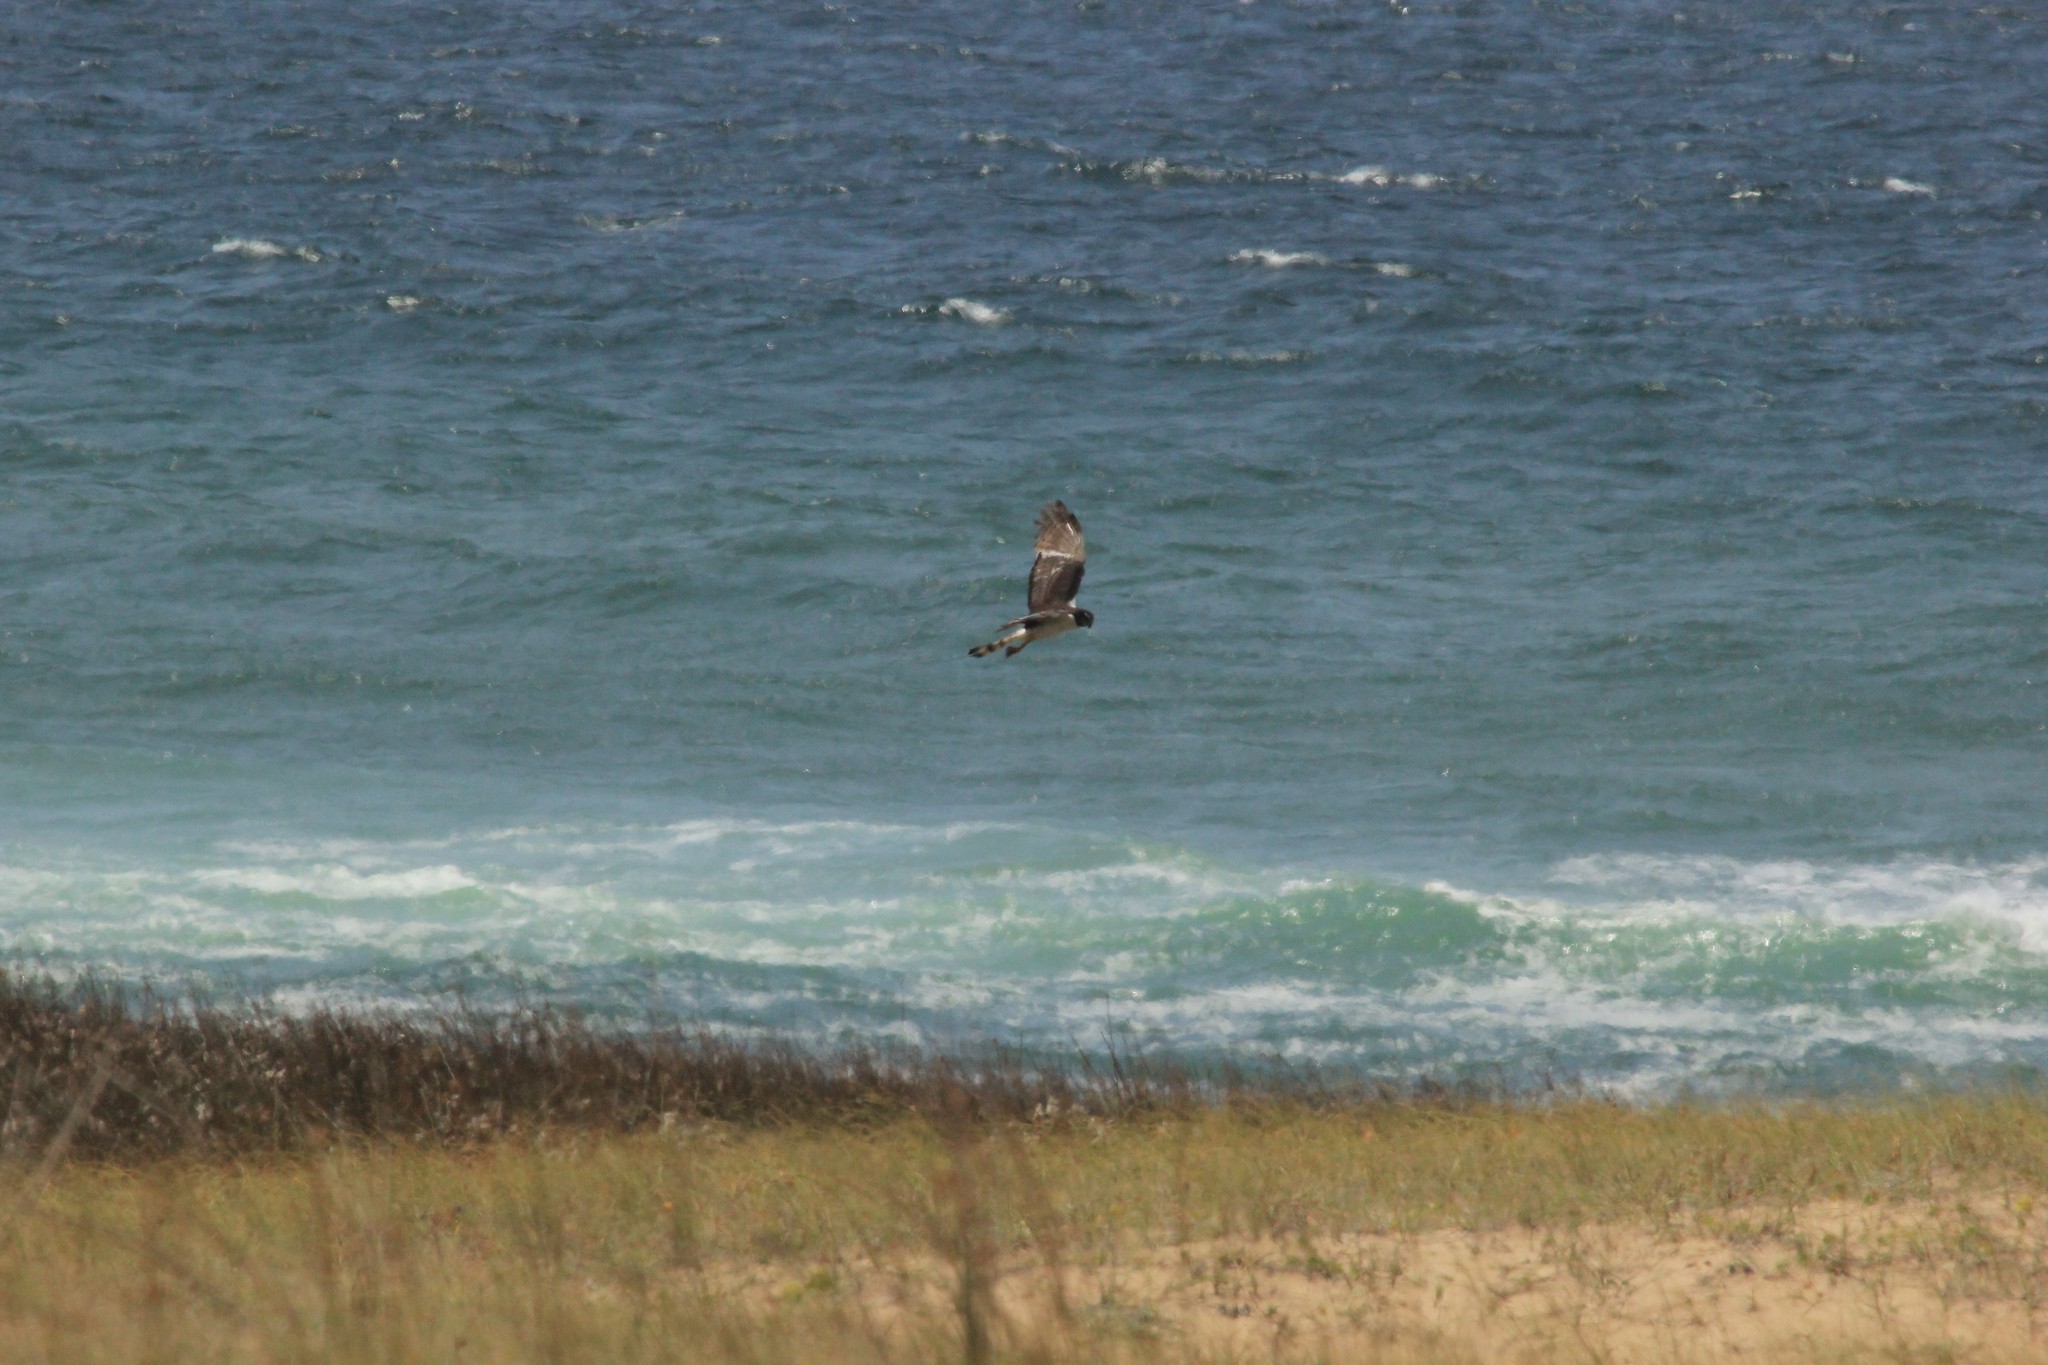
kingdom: Animalia
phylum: Chordata
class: Aves
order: Accipitriformes
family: Accipitridae
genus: Circus
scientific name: Circus buffoni
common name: Long-winged harrier
